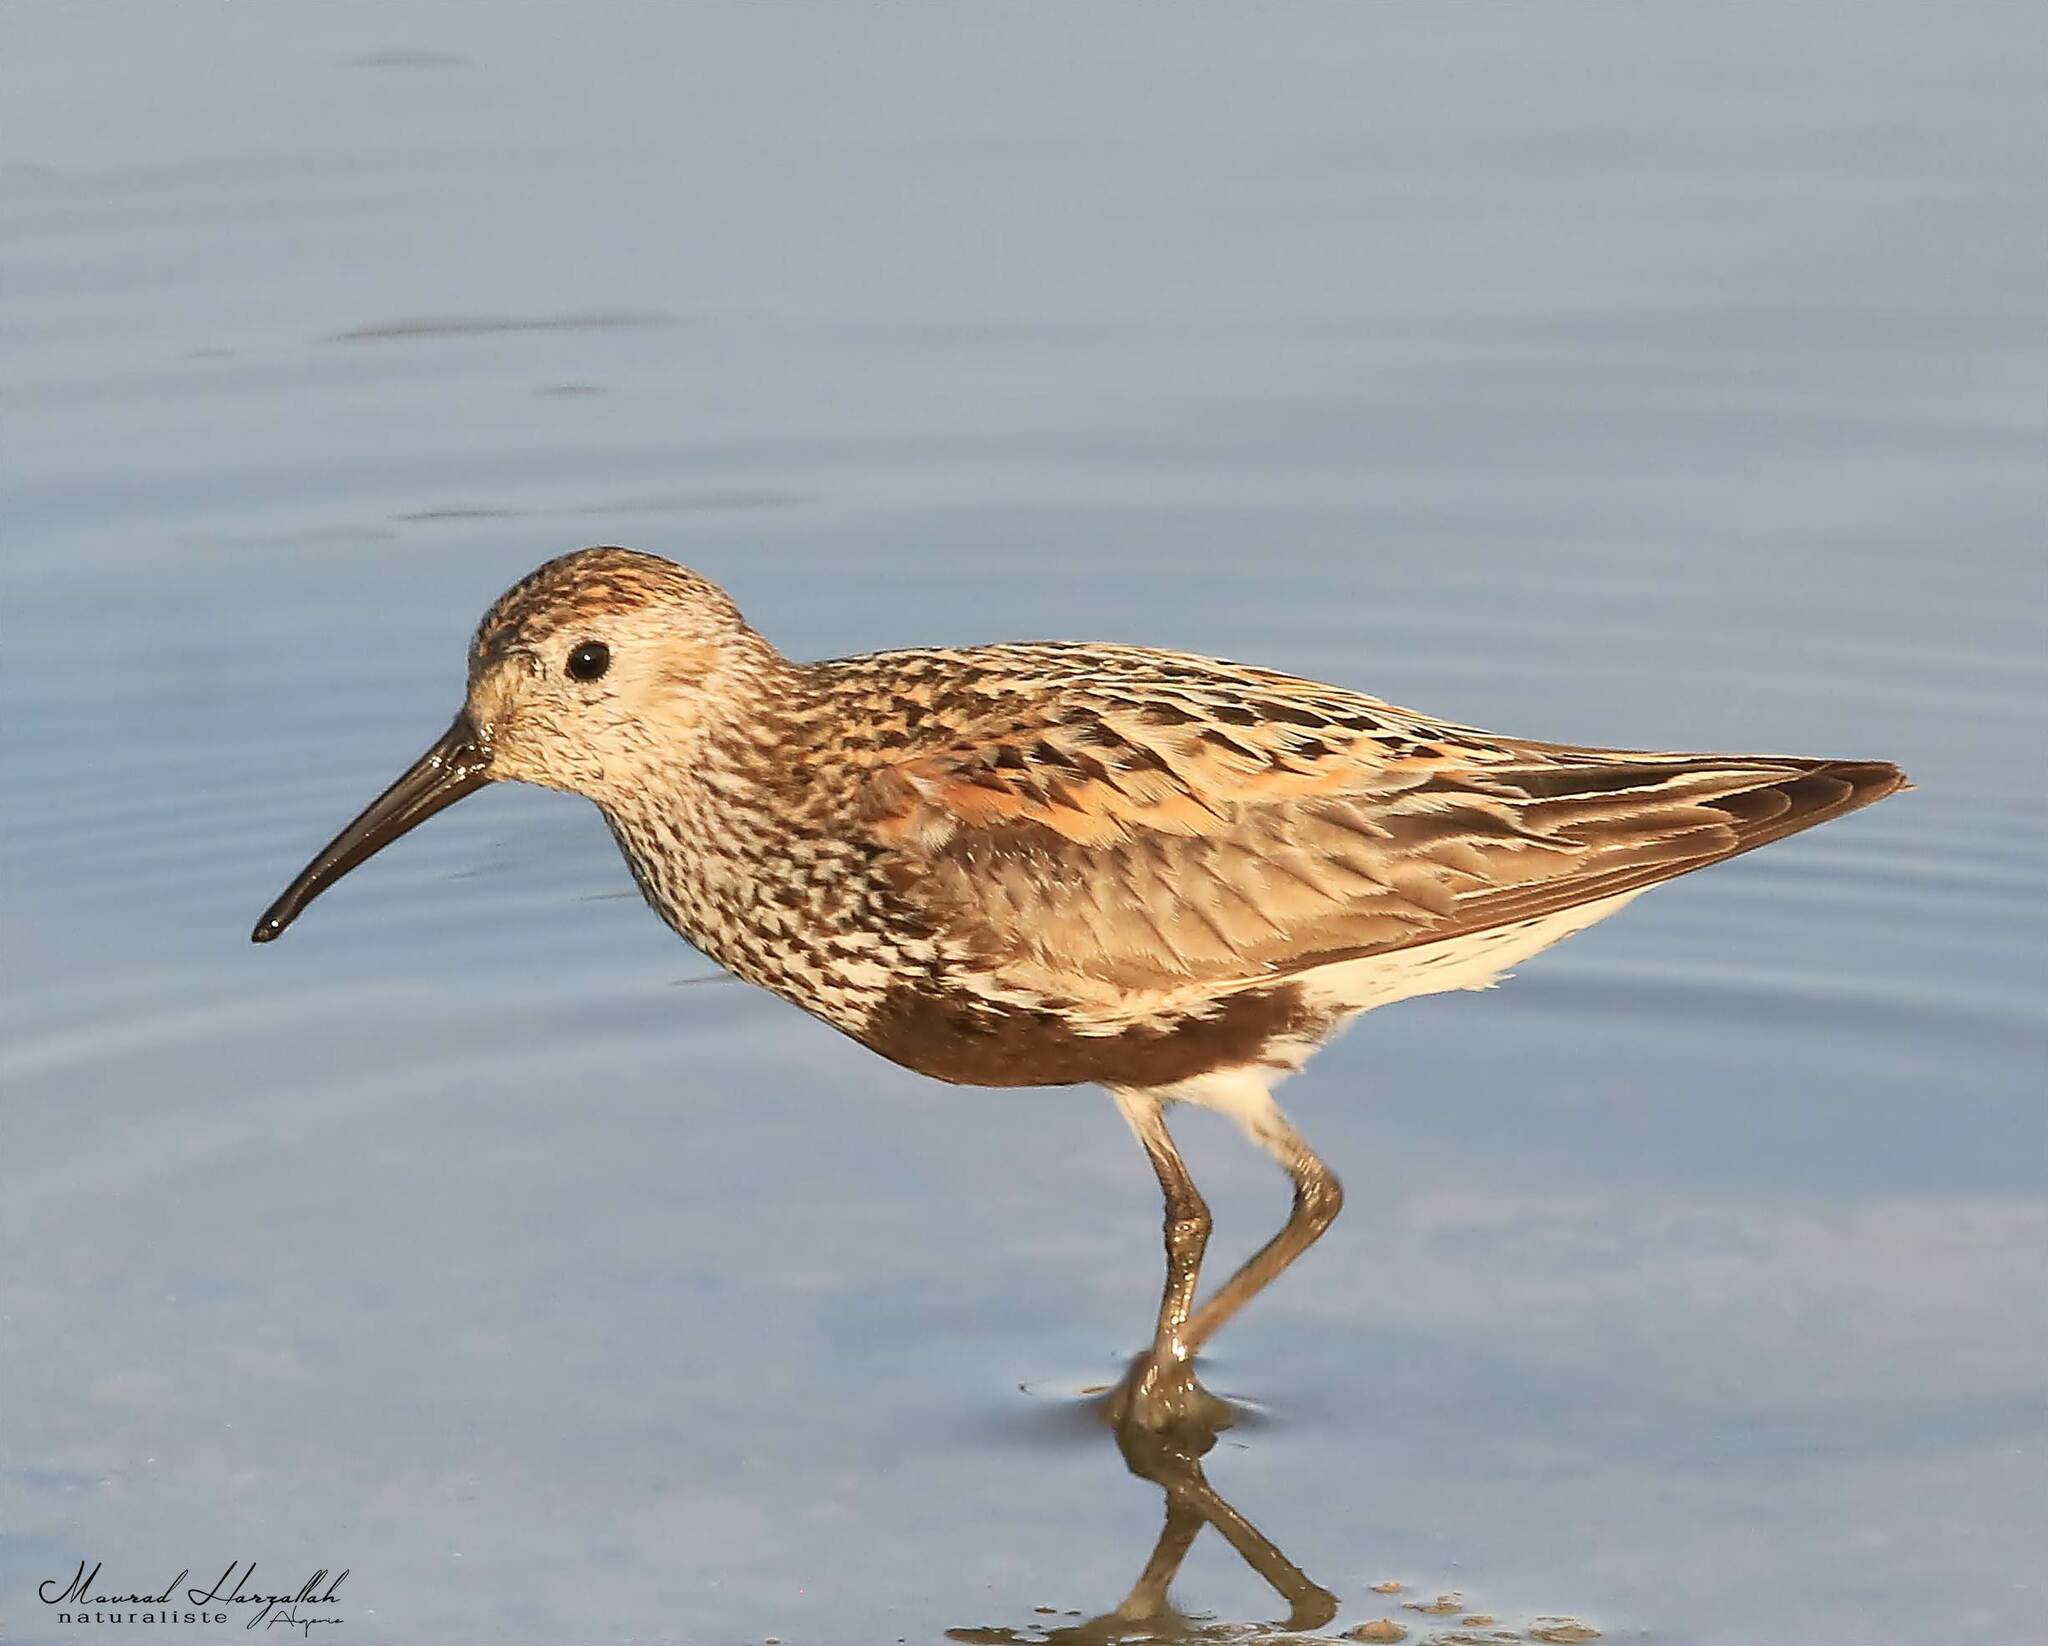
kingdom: Animalia
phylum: Chordata
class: Aves
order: Charadriiformes
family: Scolopacidae
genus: Calidris
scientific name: Calidris alpina
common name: Dunlin
